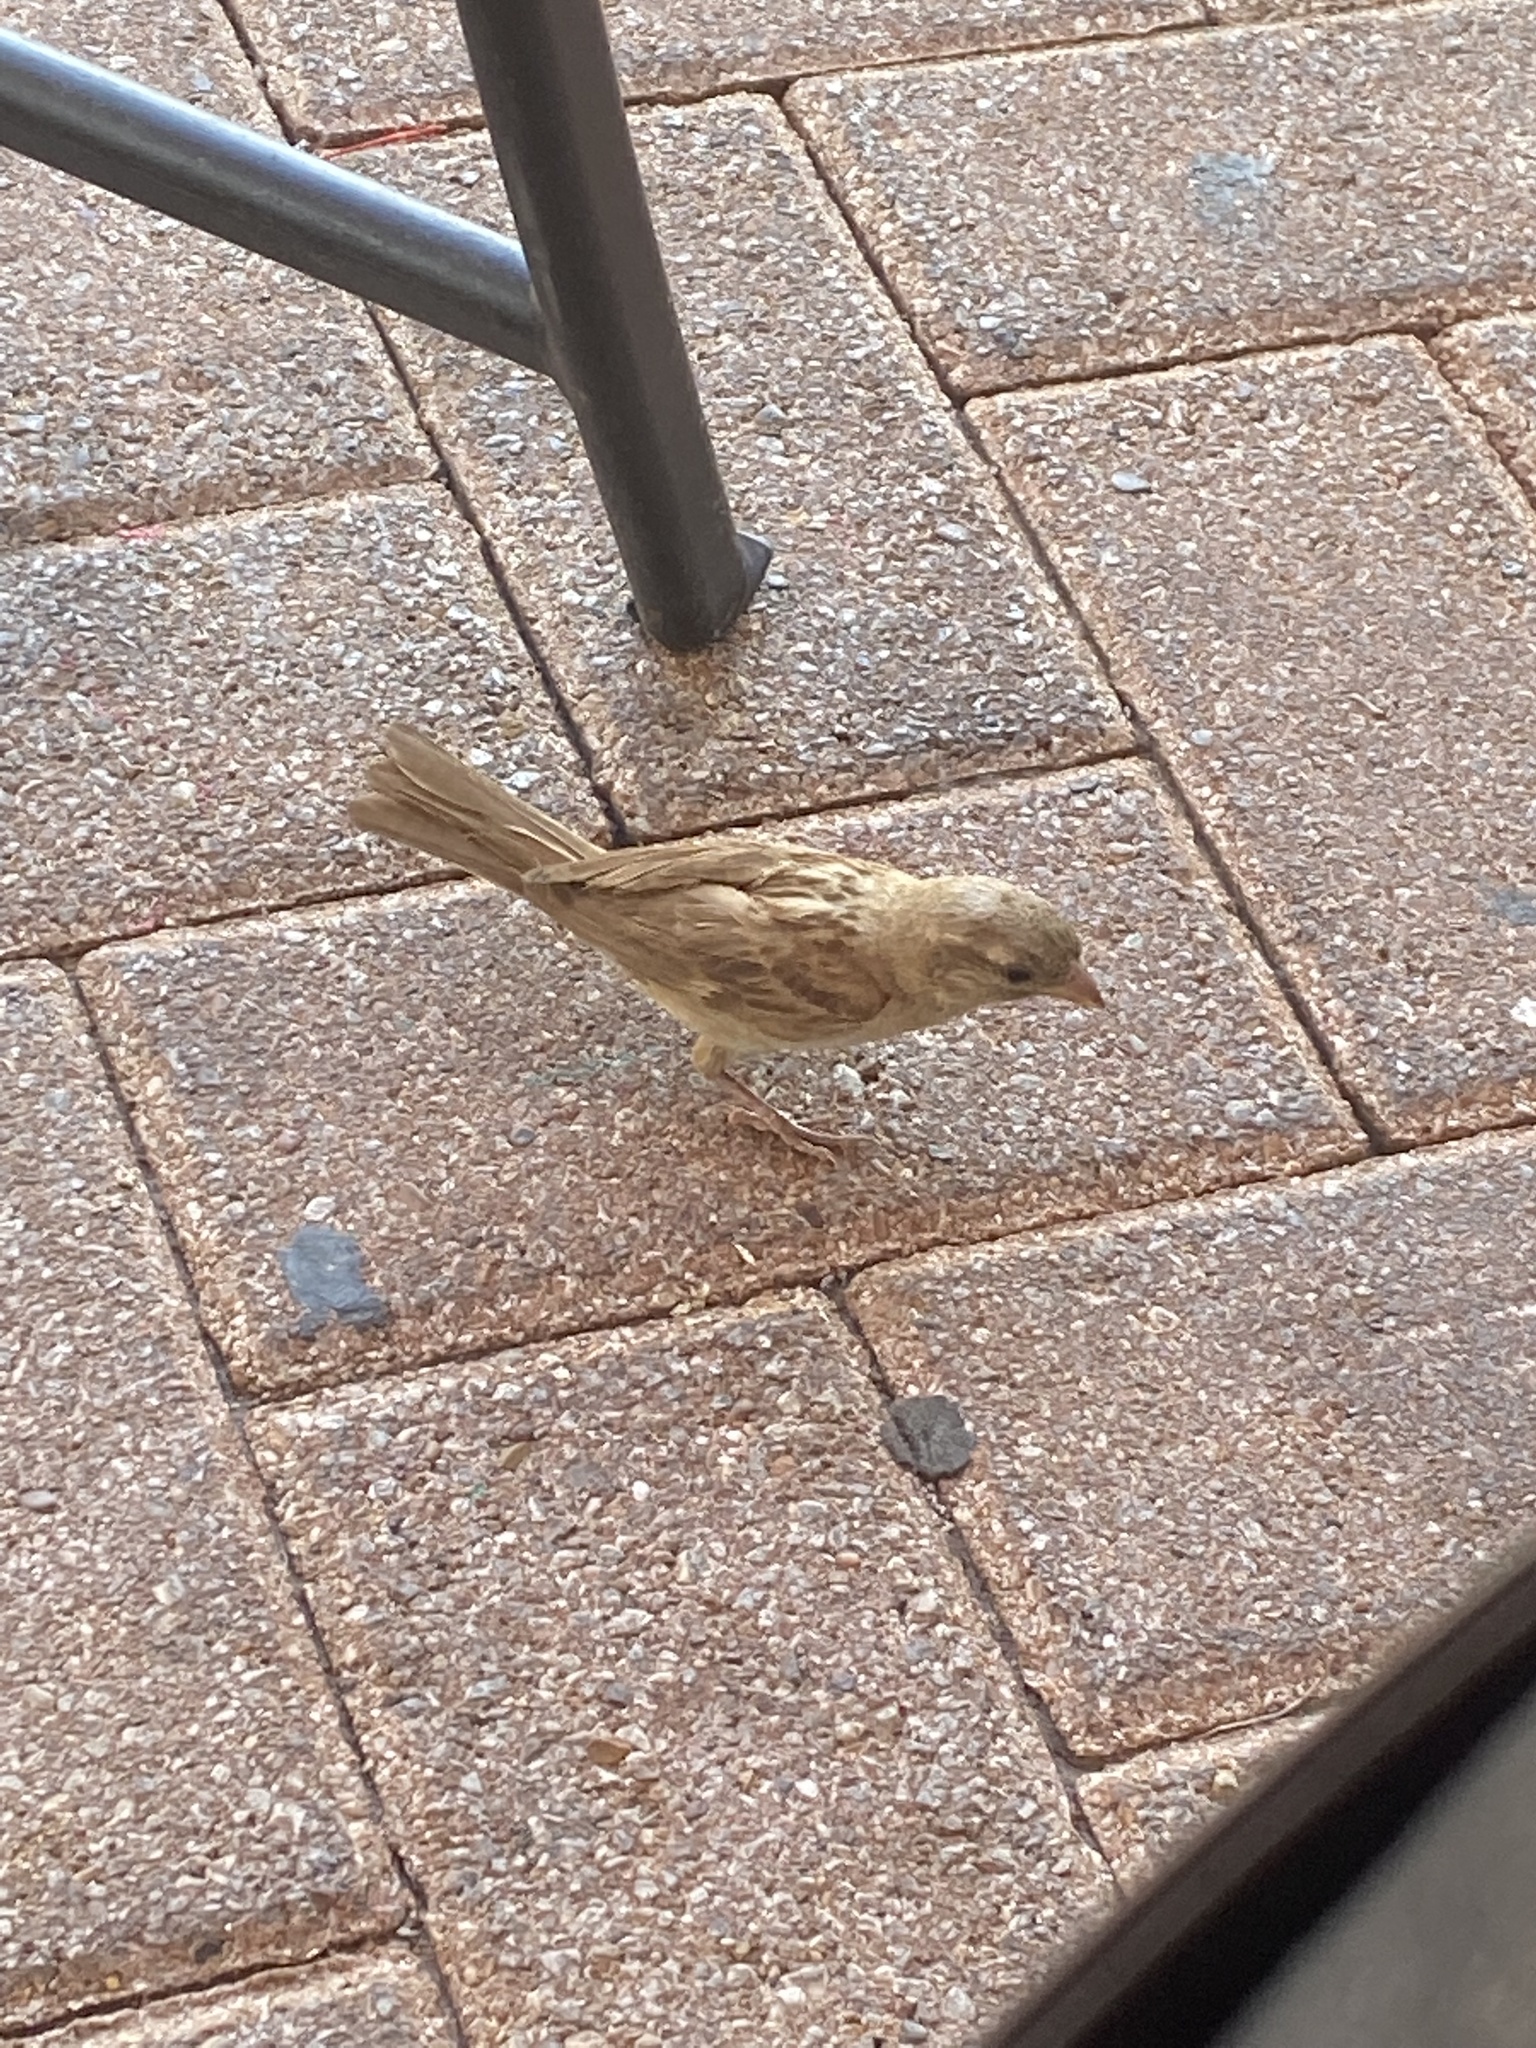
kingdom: Animalia
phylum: Chordata
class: Aves
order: Passeriformes
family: Passeridae
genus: Passer
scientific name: Passer domesticus
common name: House sparrow
